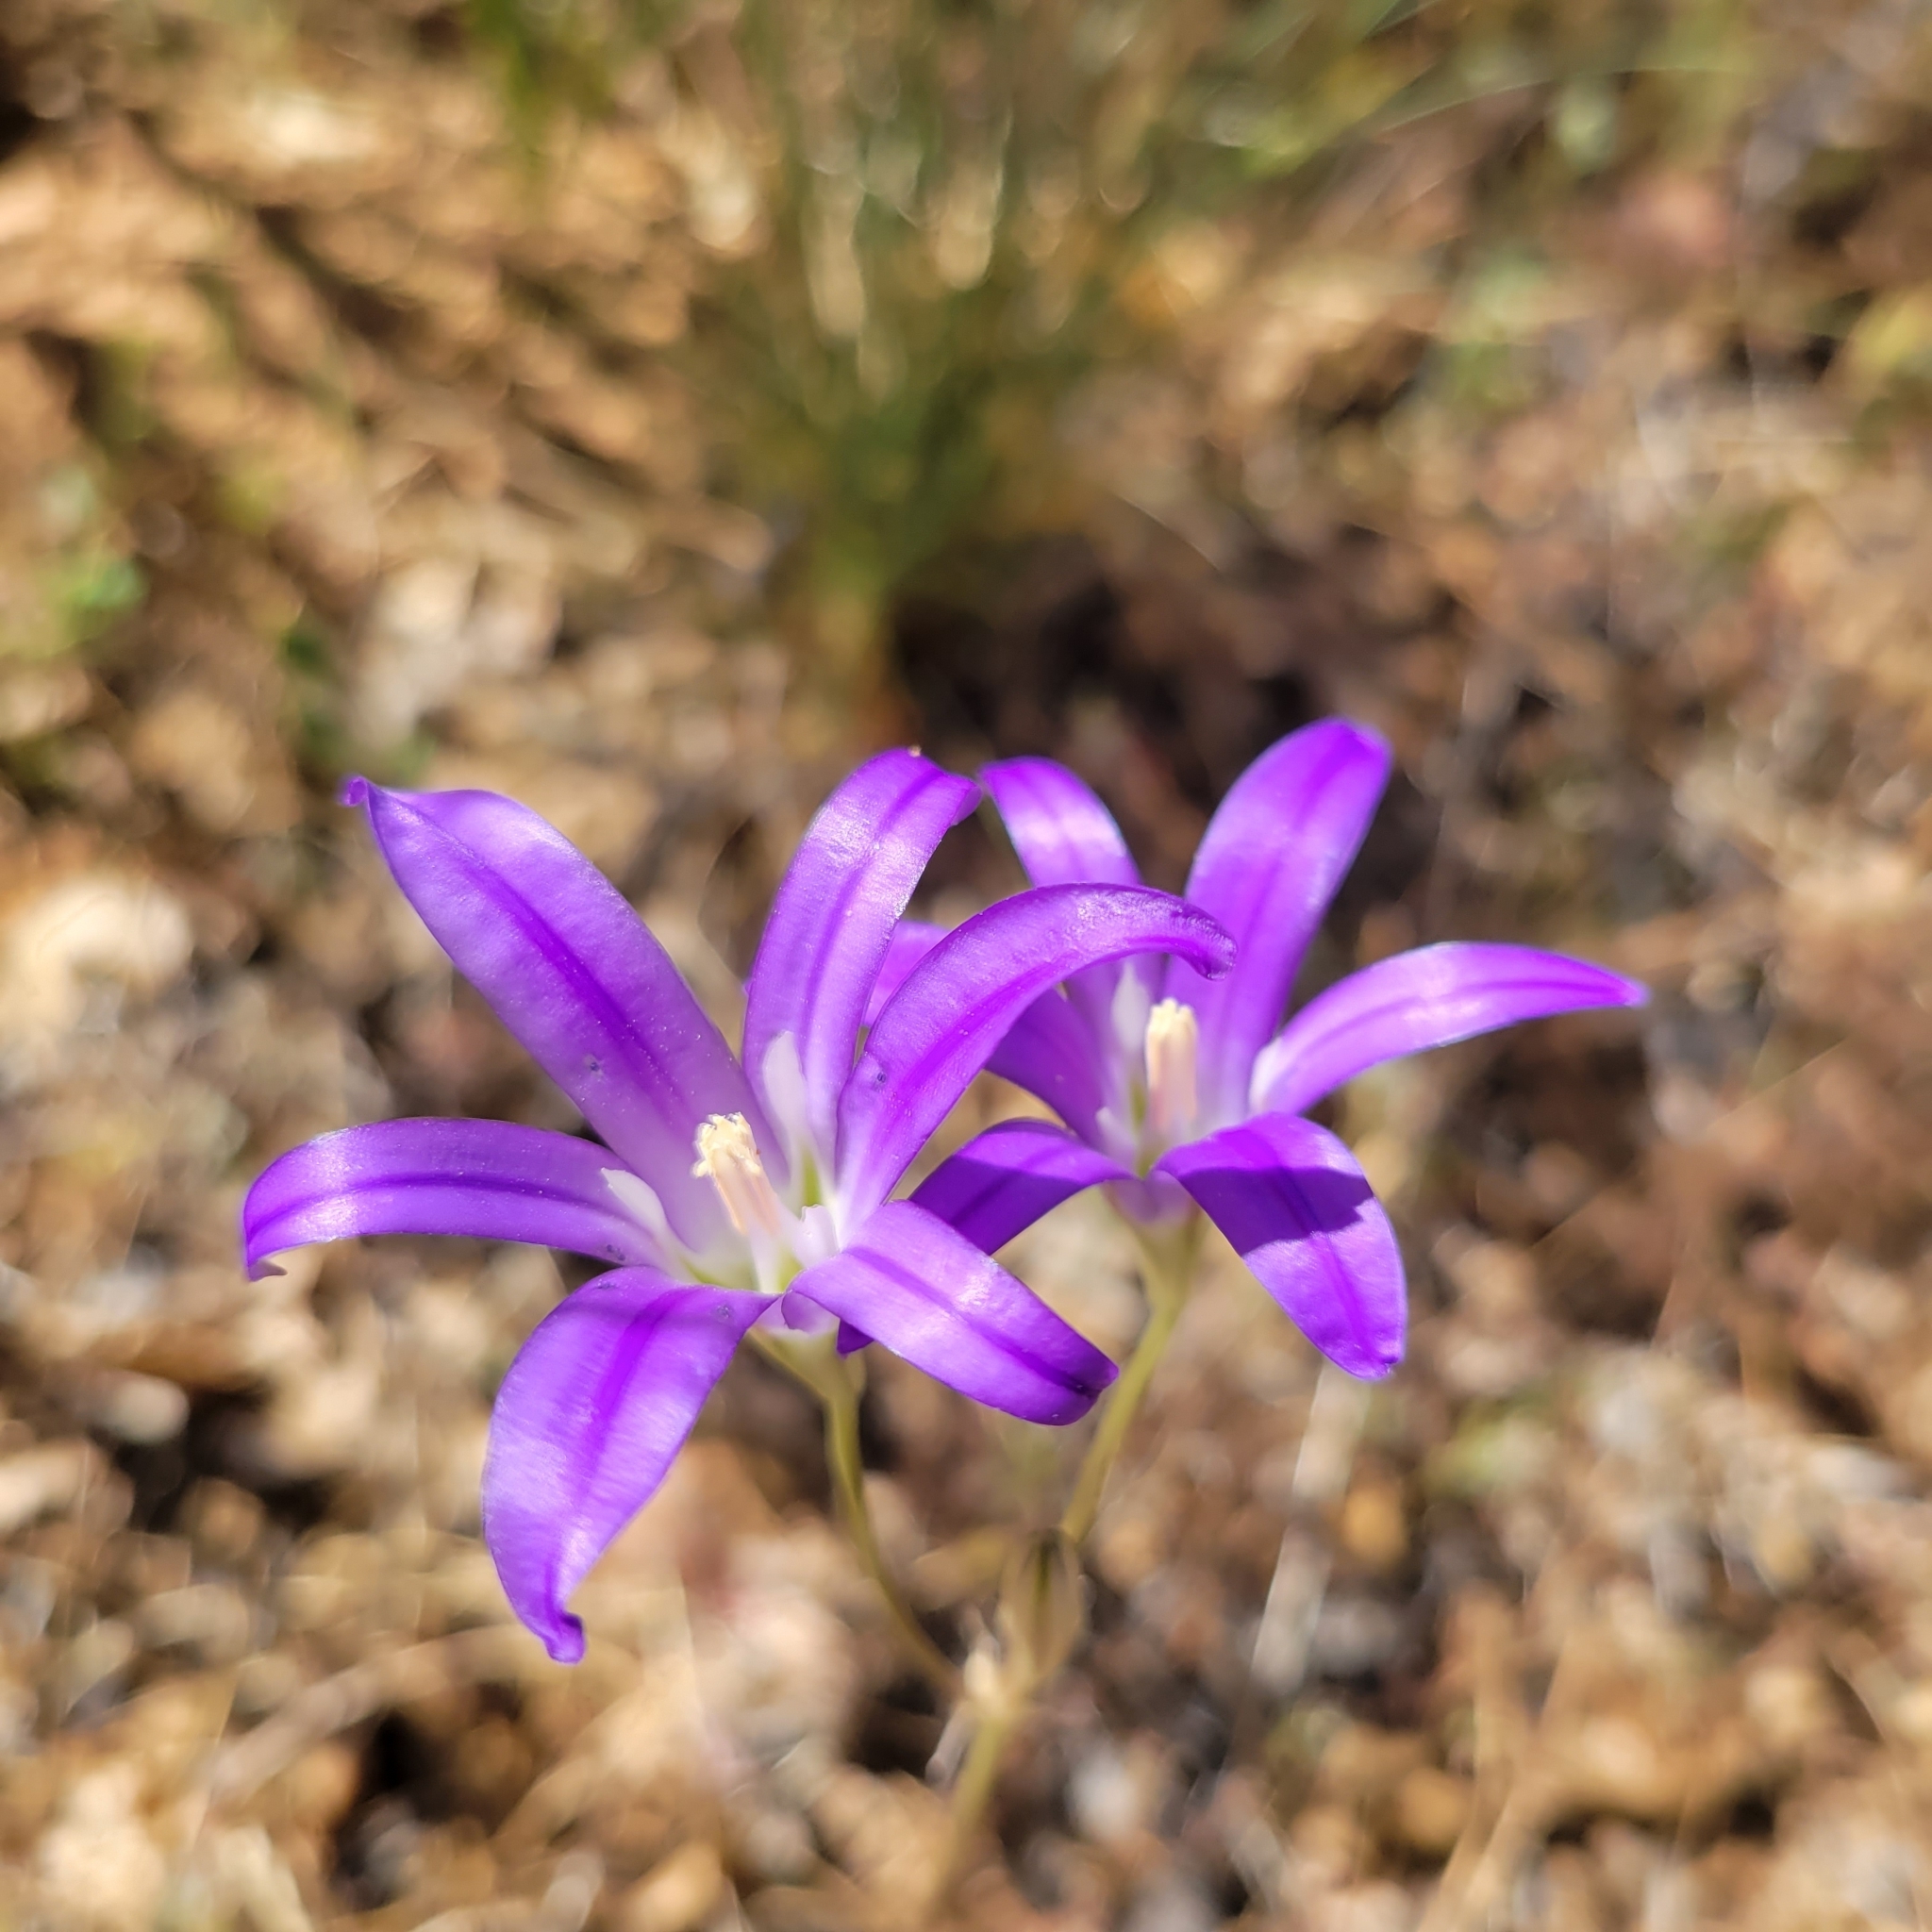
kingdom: Plantae
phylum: Tracheophyta
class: Liliopsida
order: Asparagales
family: Asparagaceae
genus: Brodiaea
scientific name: Brodiaea elegans
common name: Elegant cluster-lily
